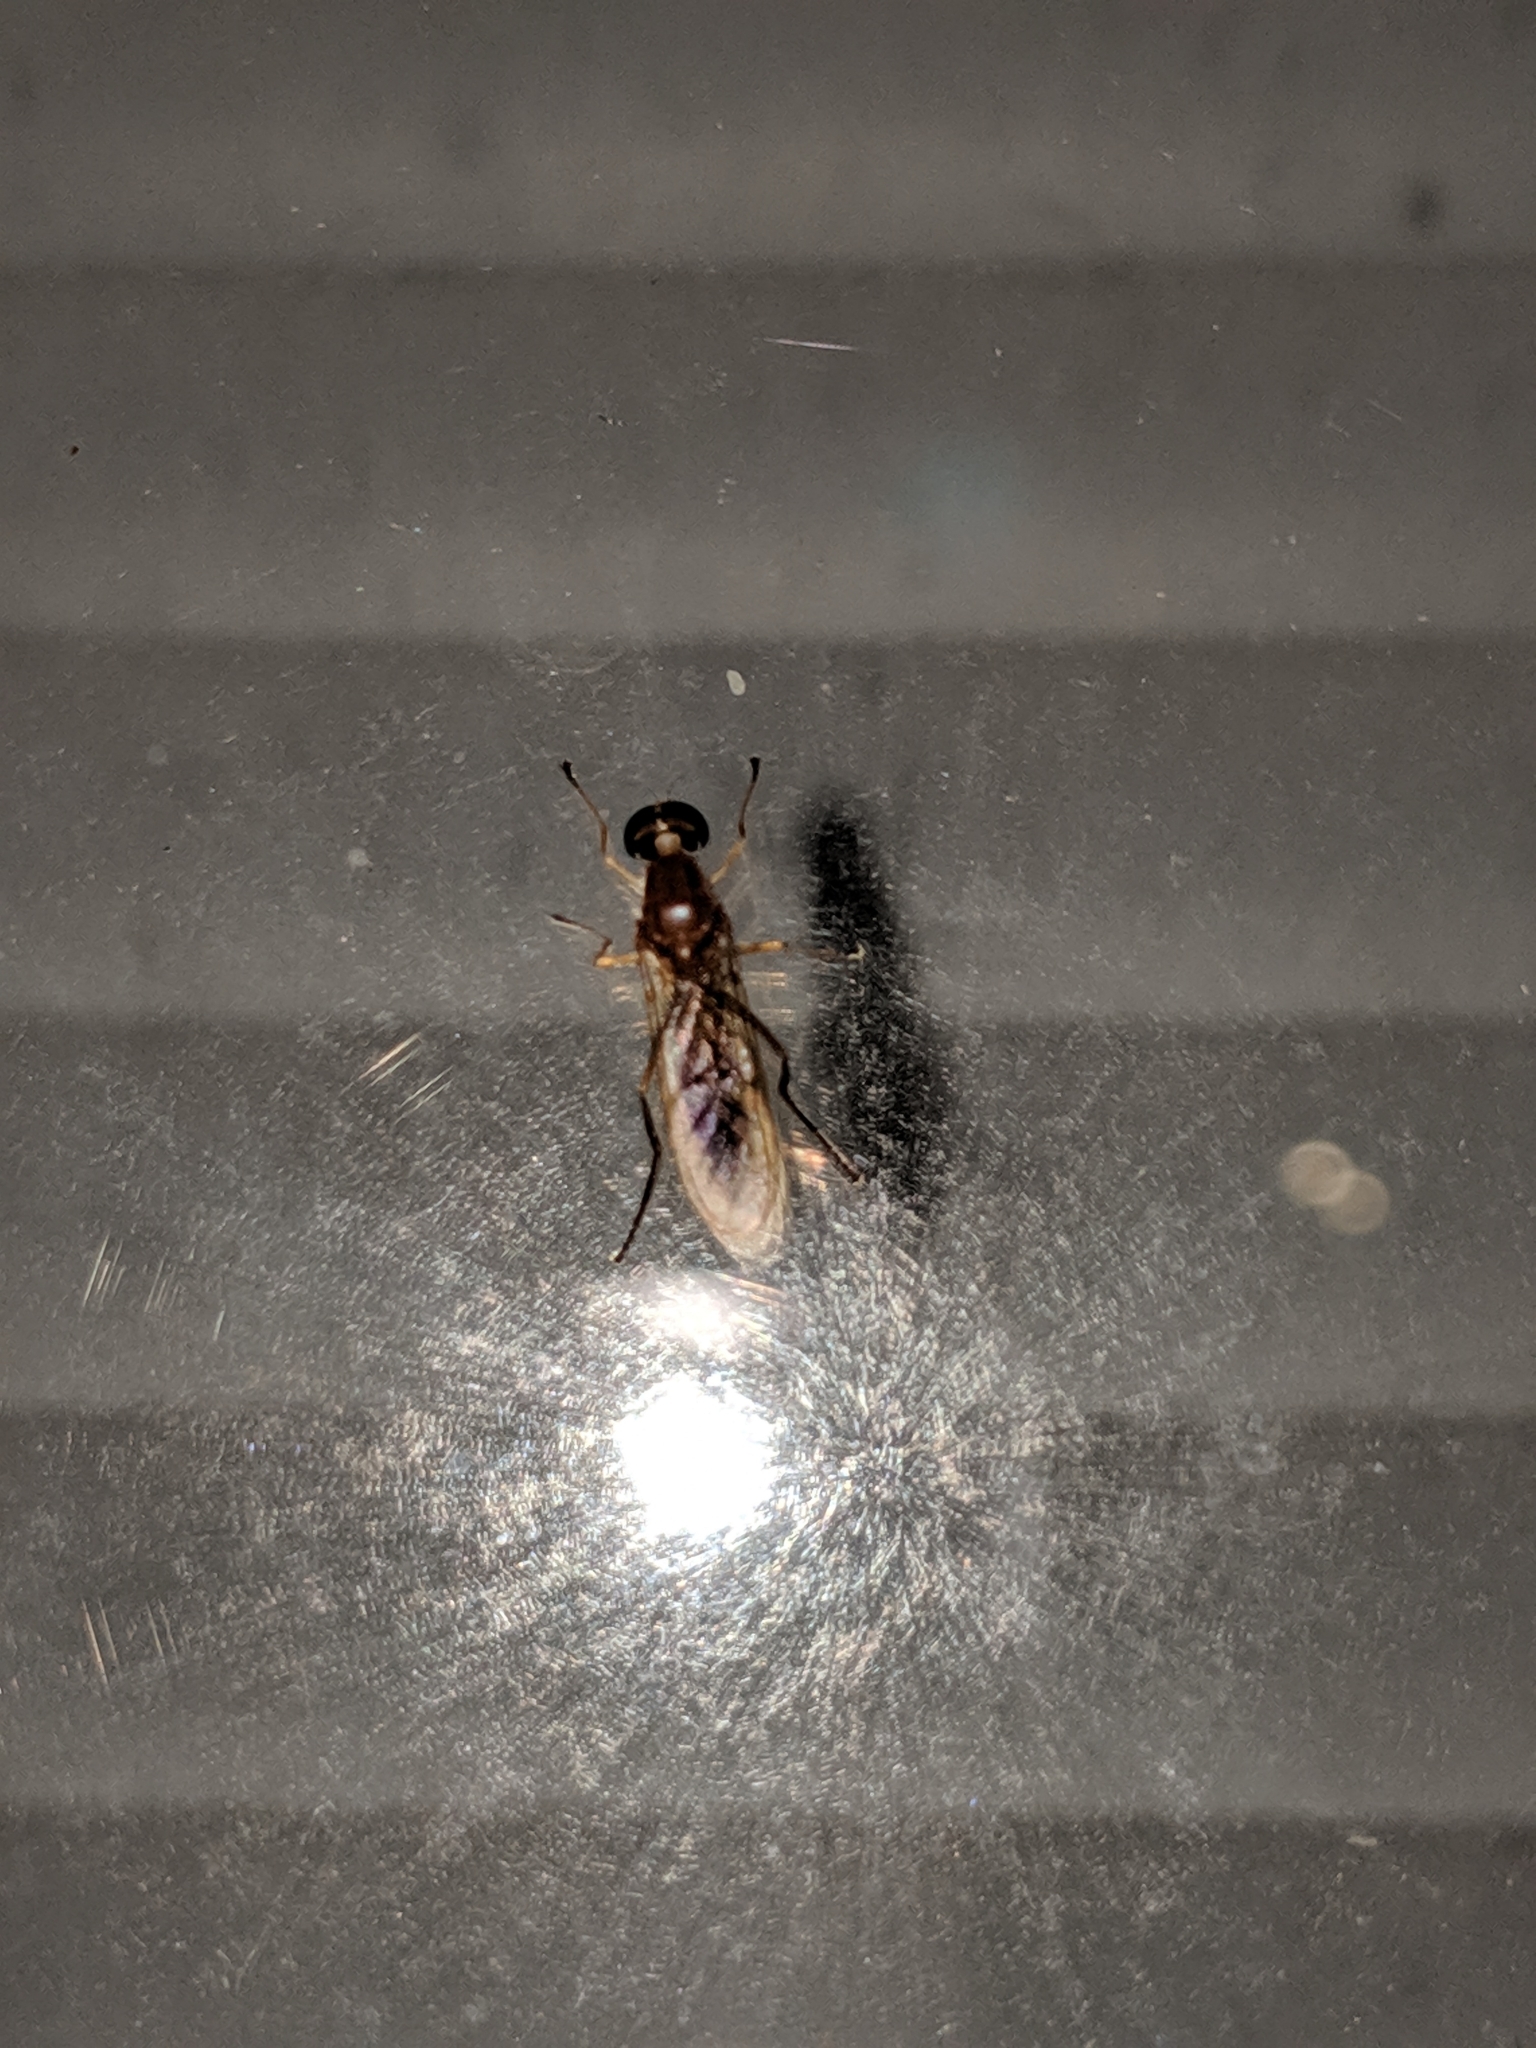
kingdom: Animalia
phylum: Arthropoda
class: Insecta
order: Diptera
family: Stratiomyidae
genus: Ptecticus
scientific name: Ptecticus trivittatus
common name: Compost fly
